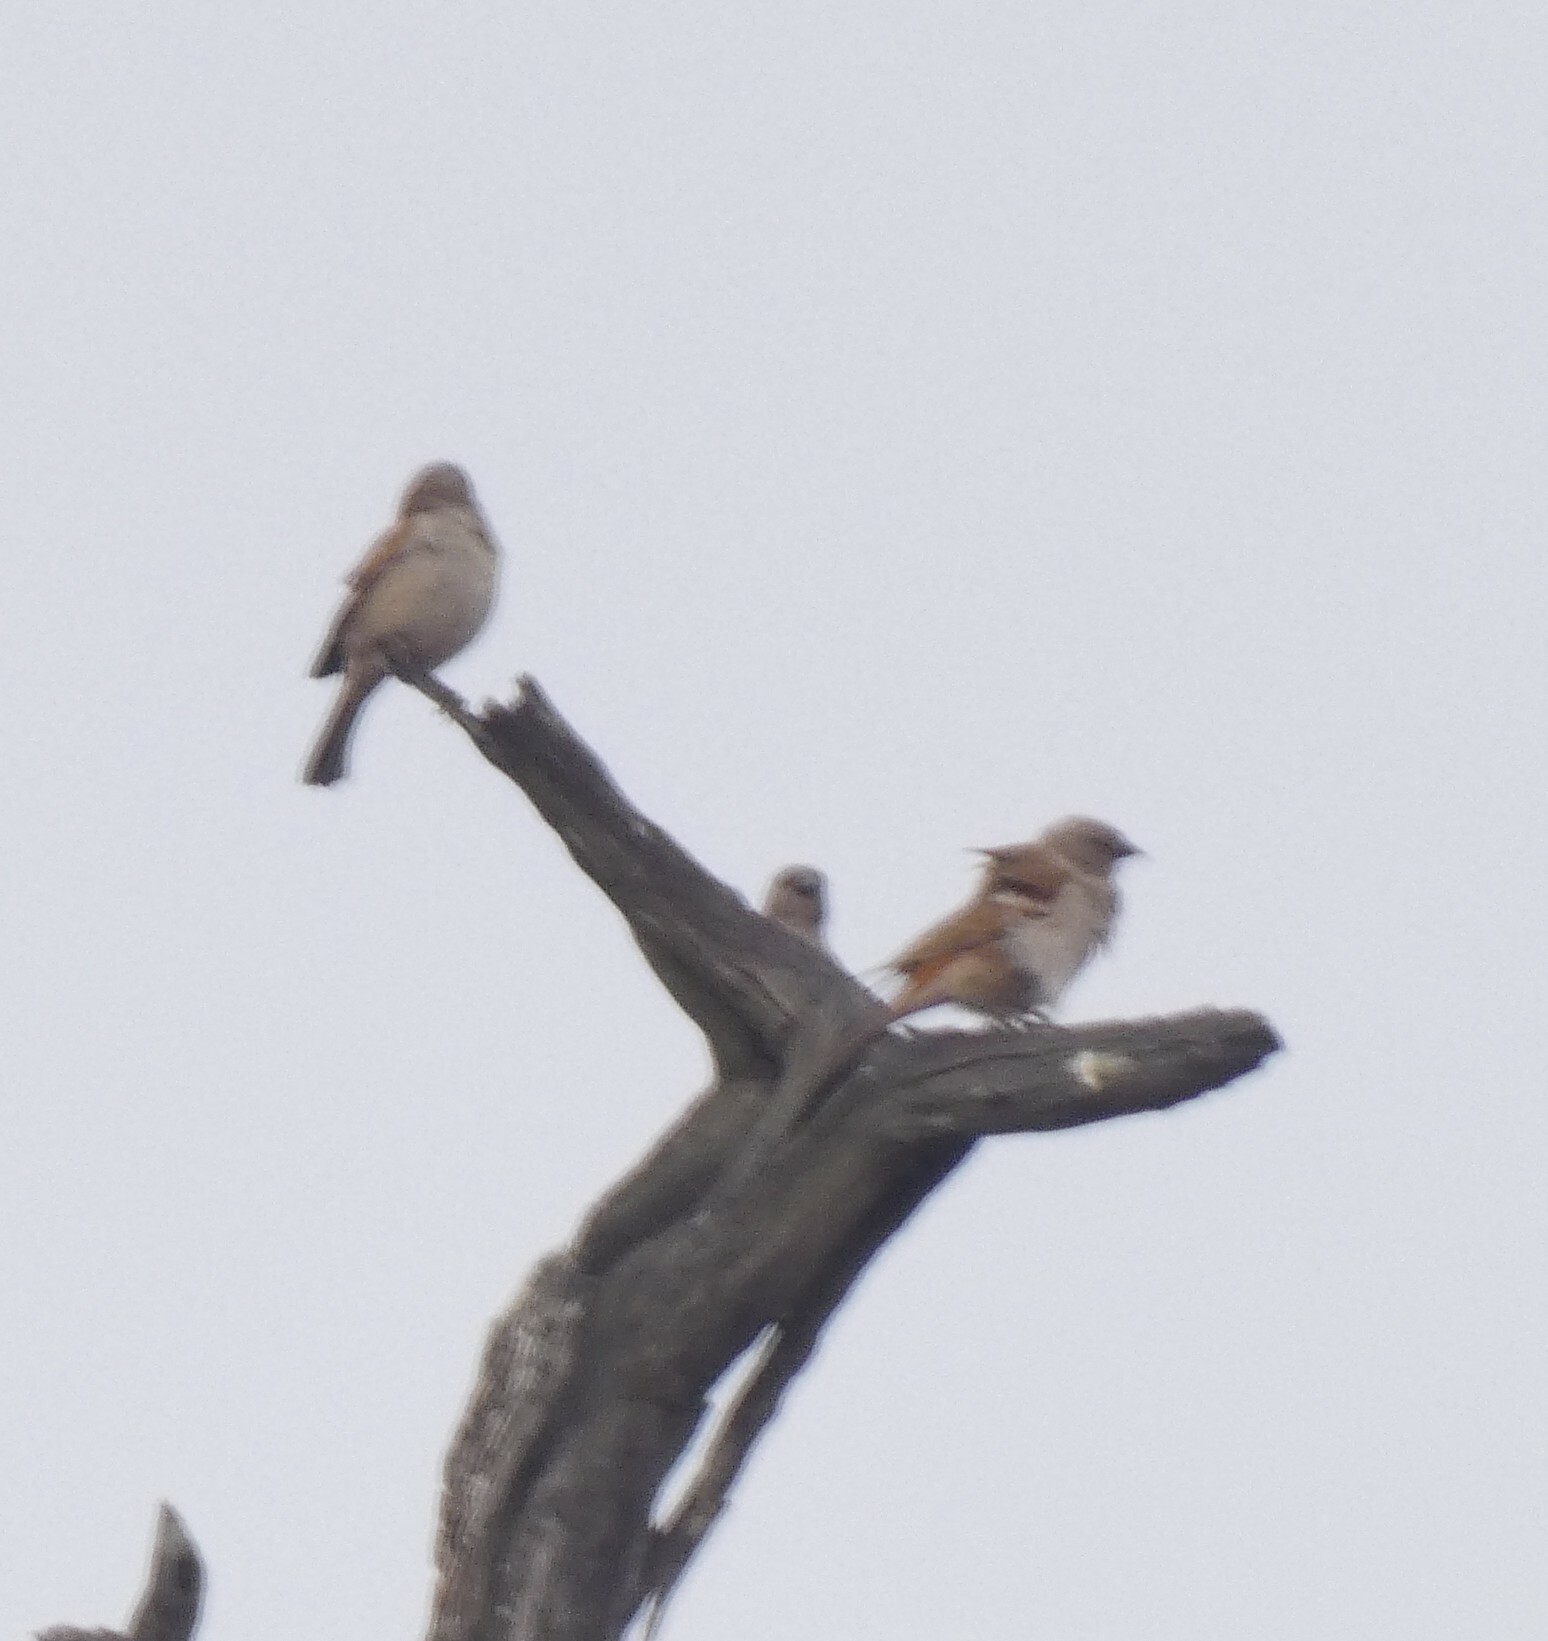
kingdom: Animalia
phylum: Chordata
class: Aves
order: Passeriformes
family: Passeridae
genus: Passer
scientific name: Passer diffusus
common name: Southern grey-headed sparrow
